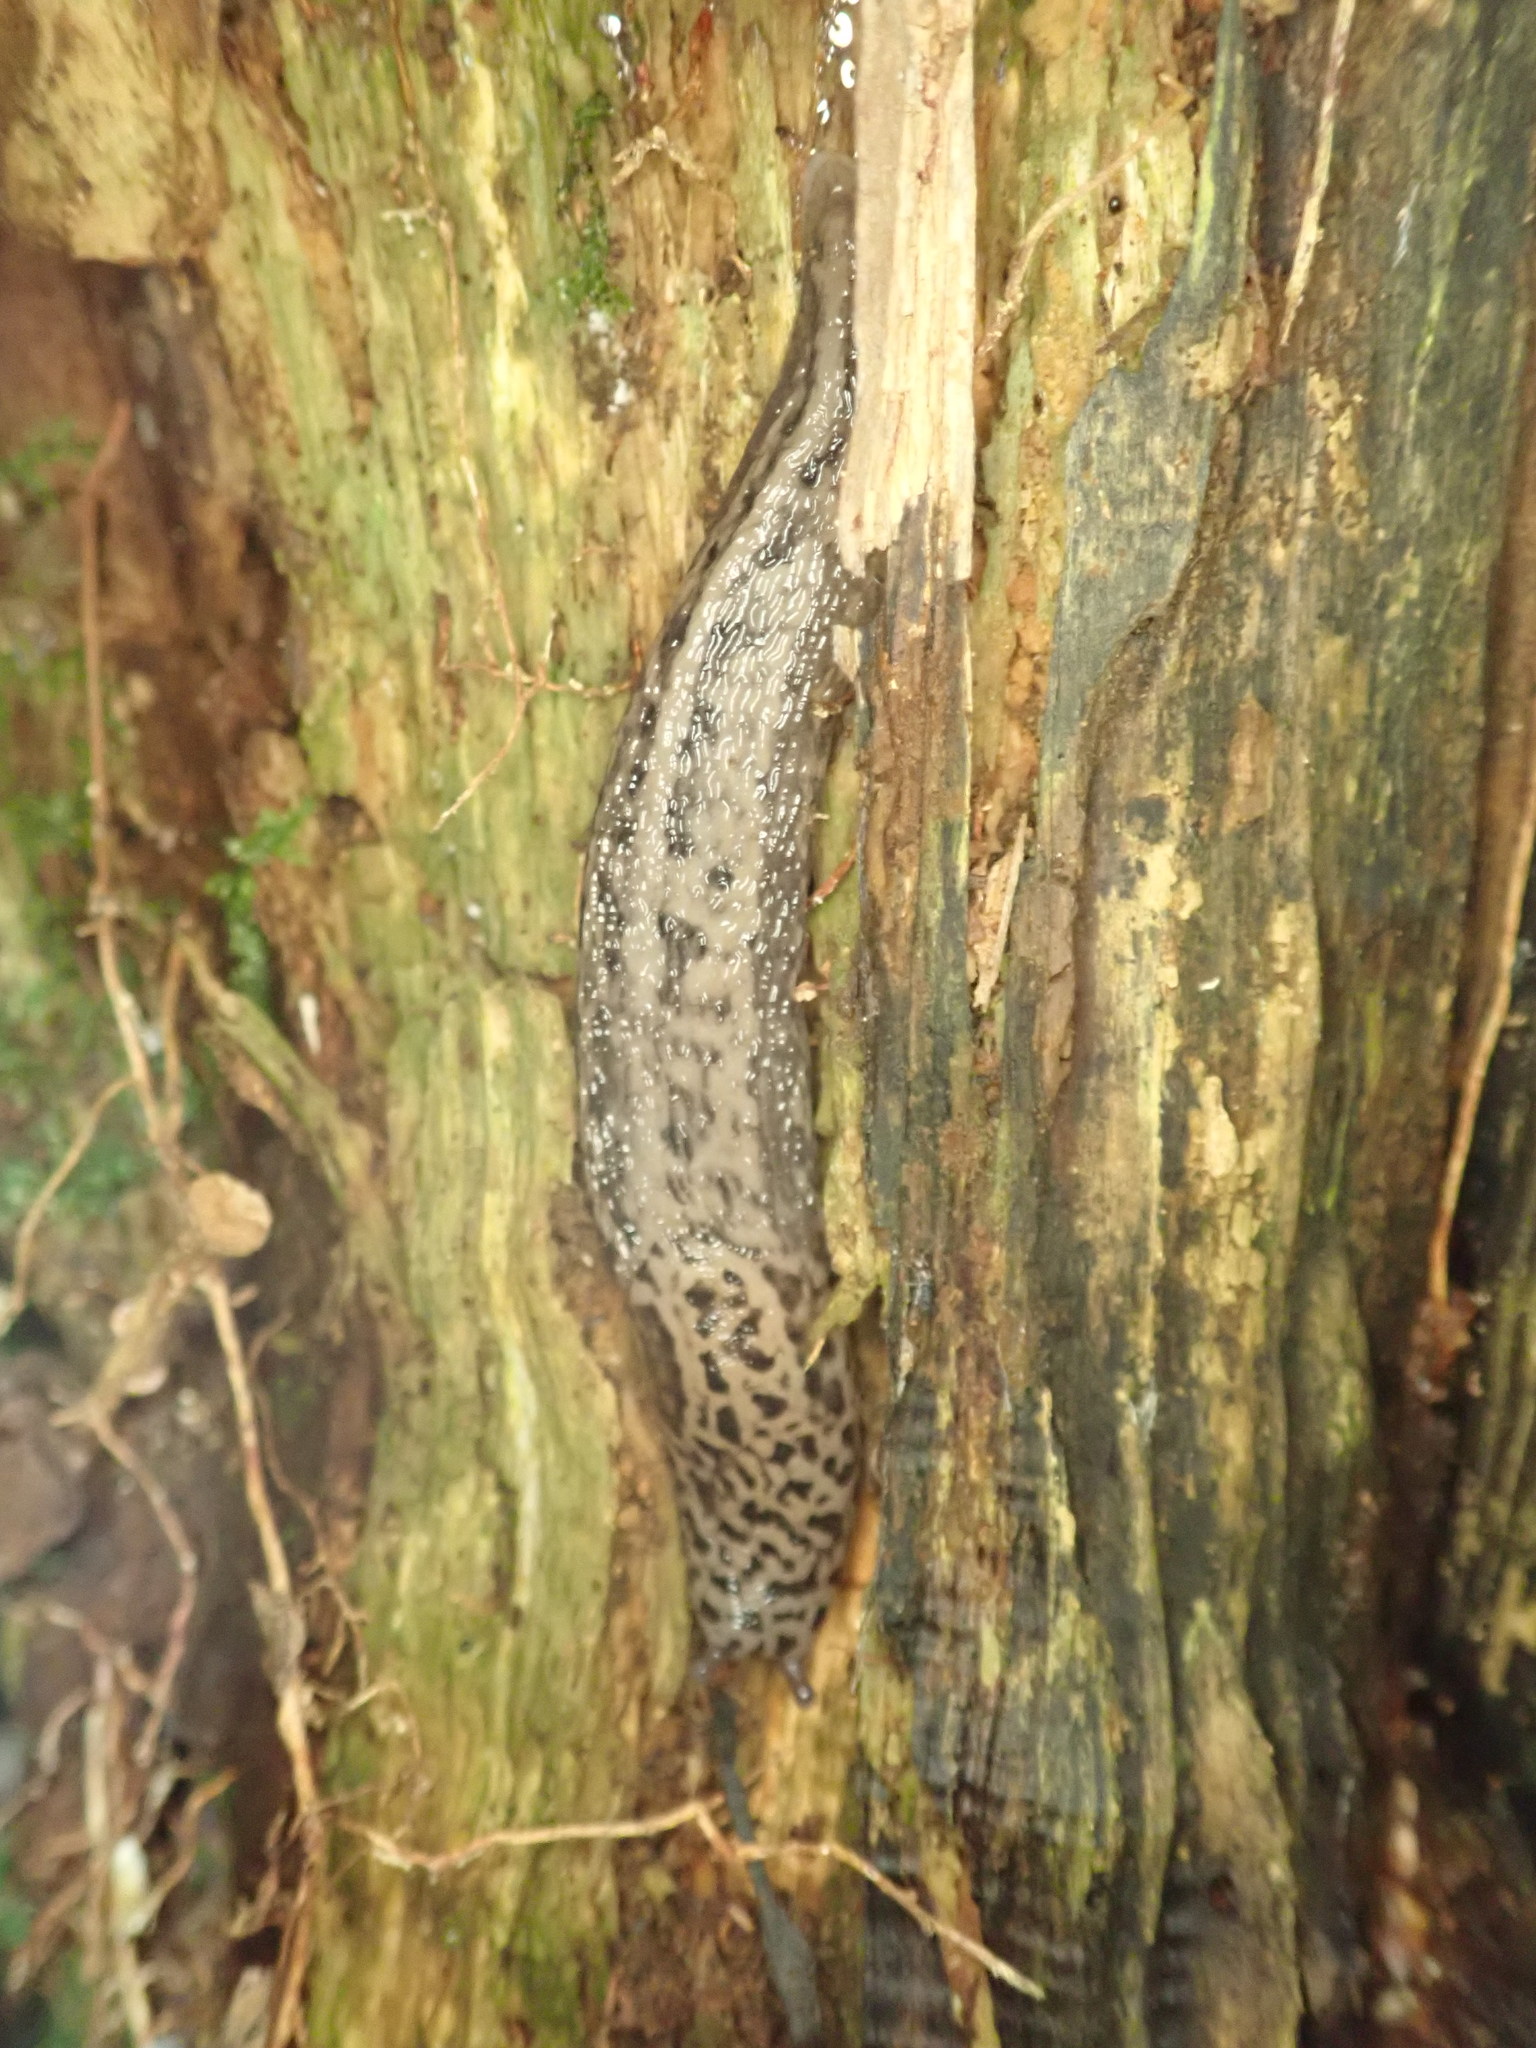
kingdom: Animalia
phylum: Mollusca
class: Gastropoda
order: Stylommatophora
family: Limacidae
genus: Limax
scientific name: Limax maximus
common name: Great grey slug
